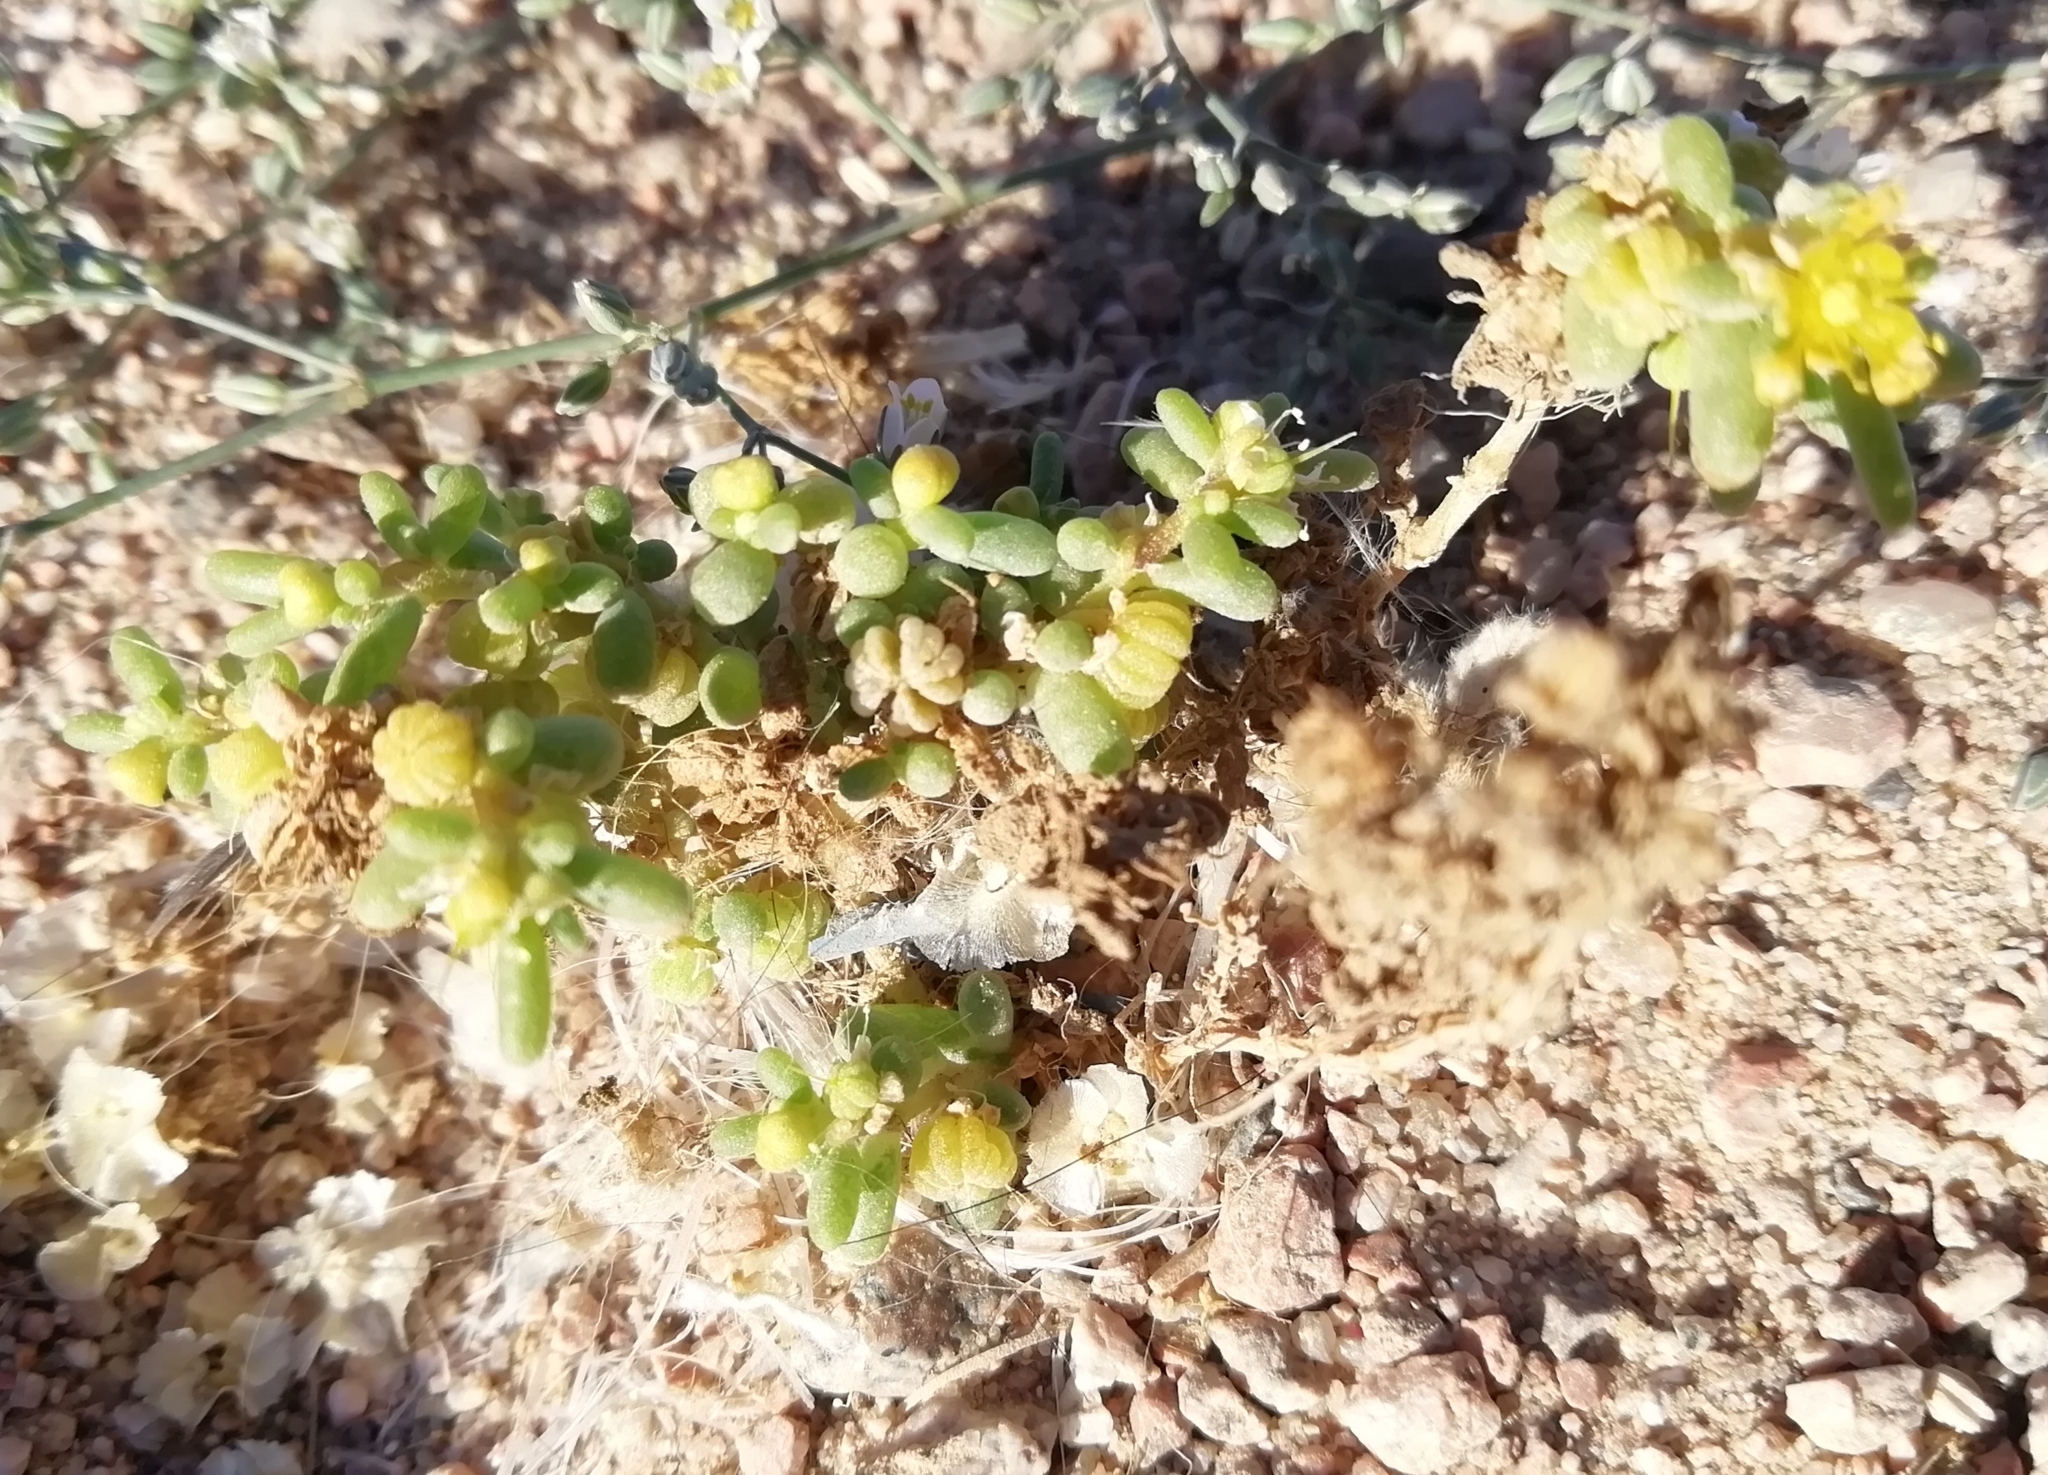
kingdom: Plantae
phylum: Tracheophyta
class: Magnoliopsida
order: Zygophyllales
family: Zygophyllaceae
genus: Tetraena
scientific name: Tetraena simplex
